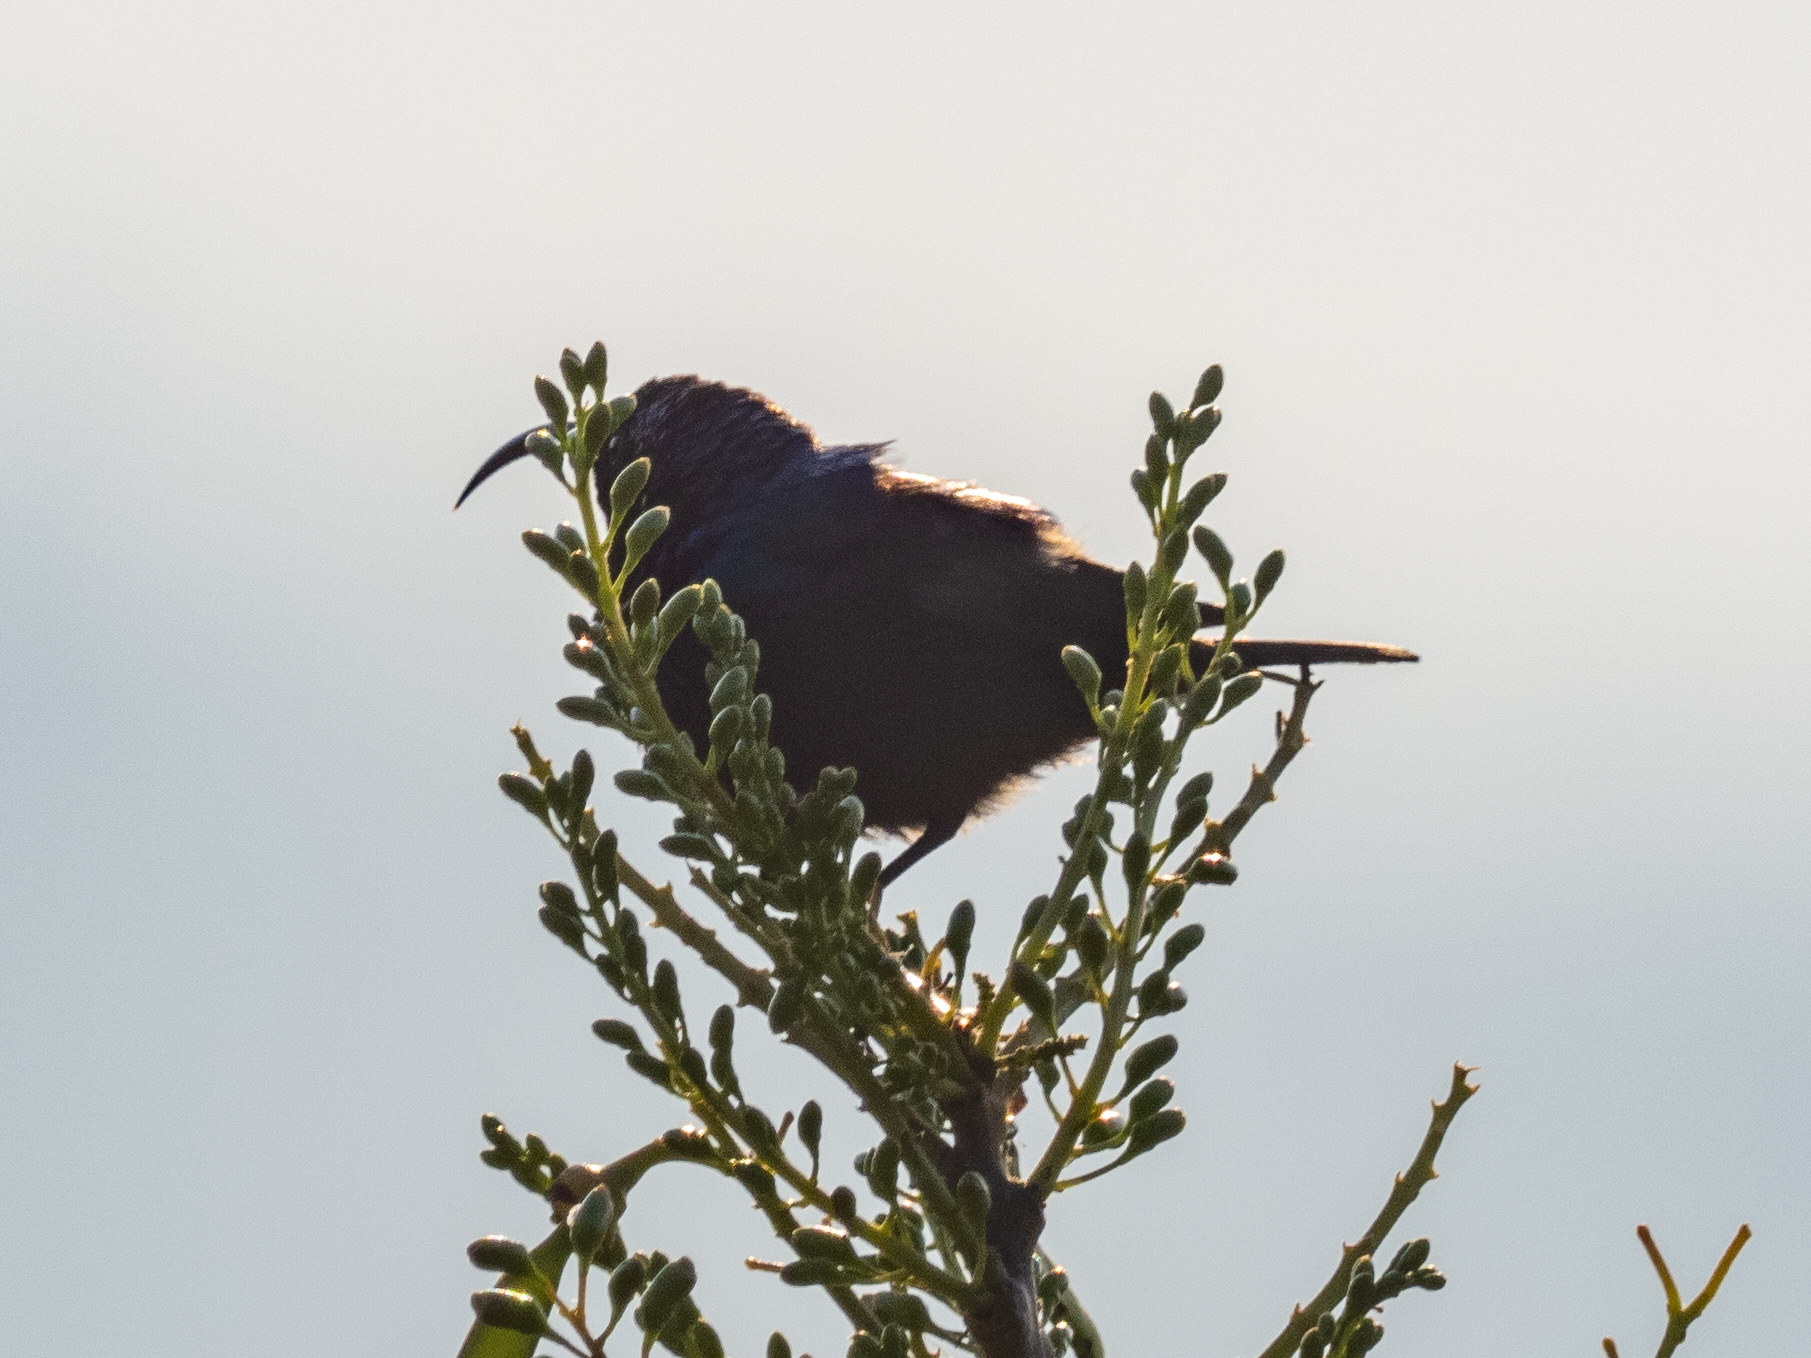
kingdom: Animalia
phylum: Chordata
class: Aves
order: Passeriformes
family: Nectariniidae
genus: Cinnyris
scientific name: Cinnyris lotenius
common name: Loten's sunbird
